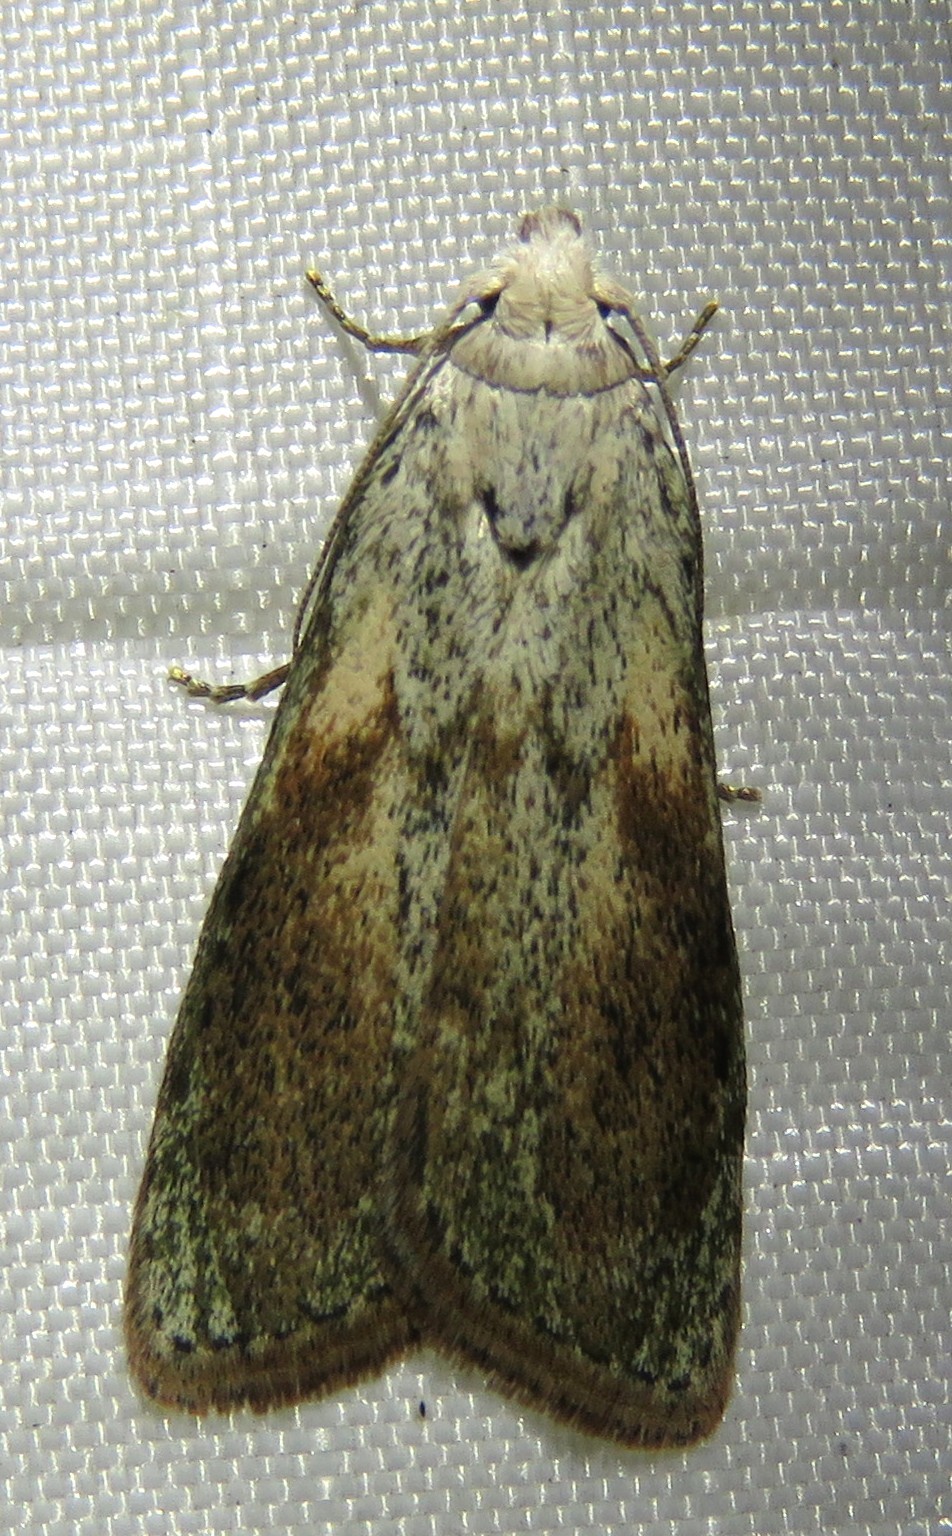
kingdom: Animalia
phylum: Arthropoda
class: Insecta
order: Lepidoptera
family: Pyralidae
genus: Aphomia
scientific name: Aphomia sociella
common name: Bee moth
